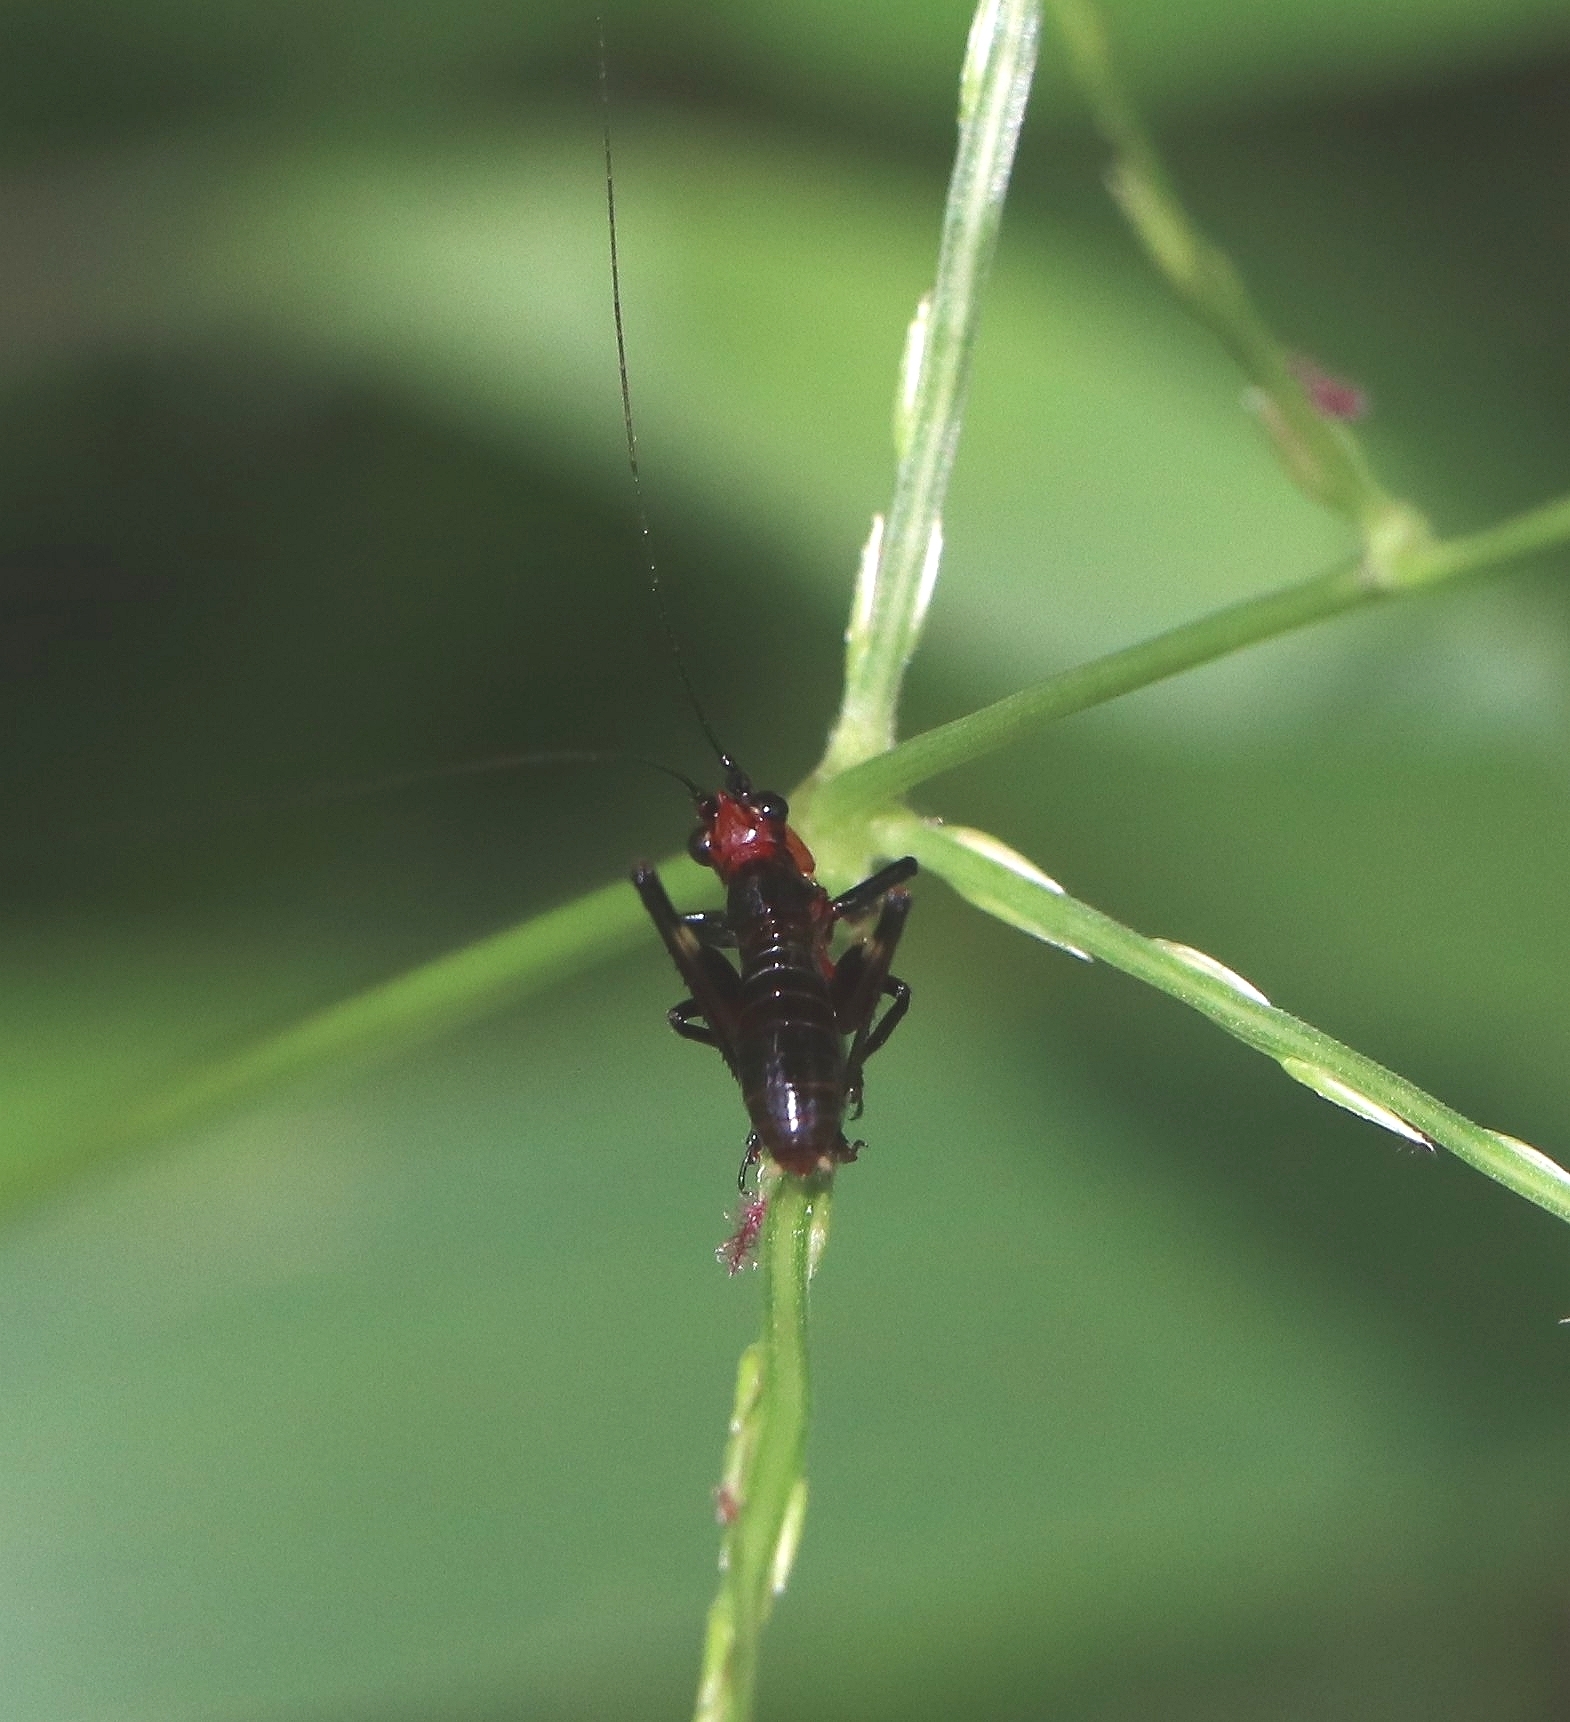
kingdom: Animalia
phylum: Arthropoda
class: Insecta
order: Orthoptera
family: Tettigoniidae
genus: Conocephalus
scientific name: Conocephalus melaenus
